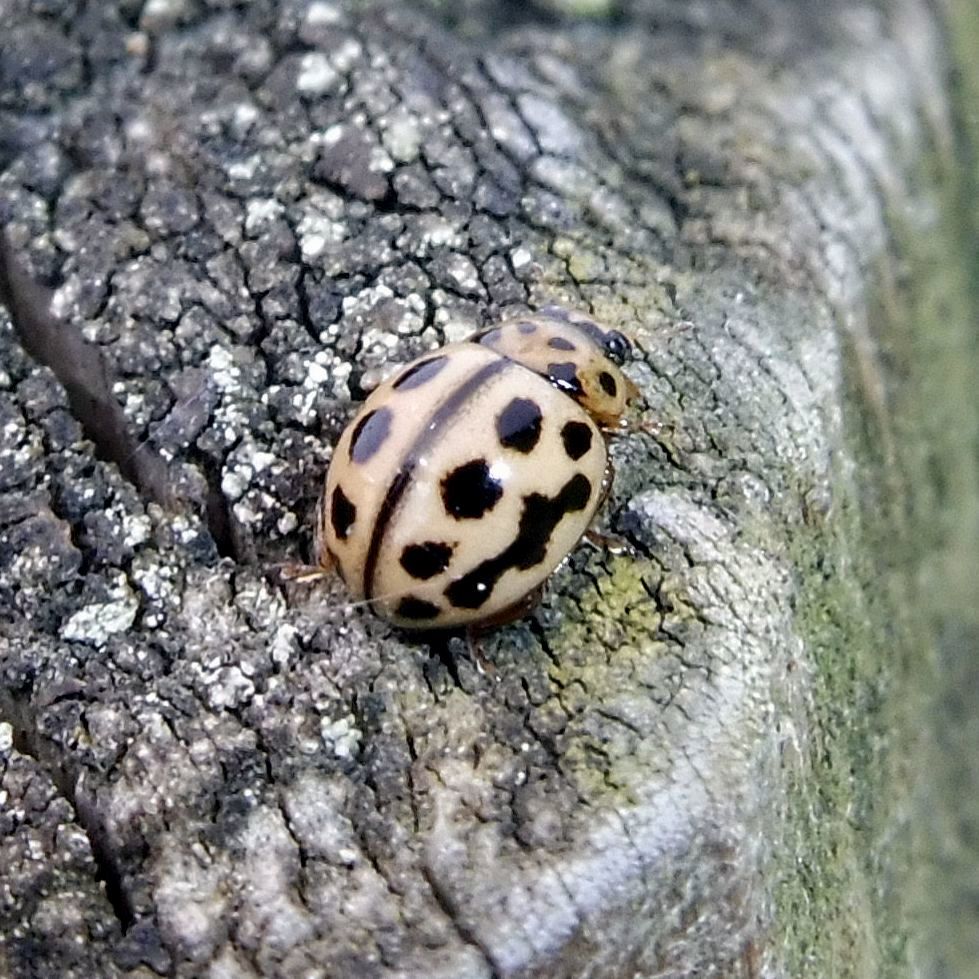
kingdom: Animalia
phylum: Arthropoda
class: Insecta
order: Coleoptera
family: Coccinellidae
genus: Tytthaspis
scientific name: Tytthaspis sedecimpunctata
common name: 16-spot ladybird
